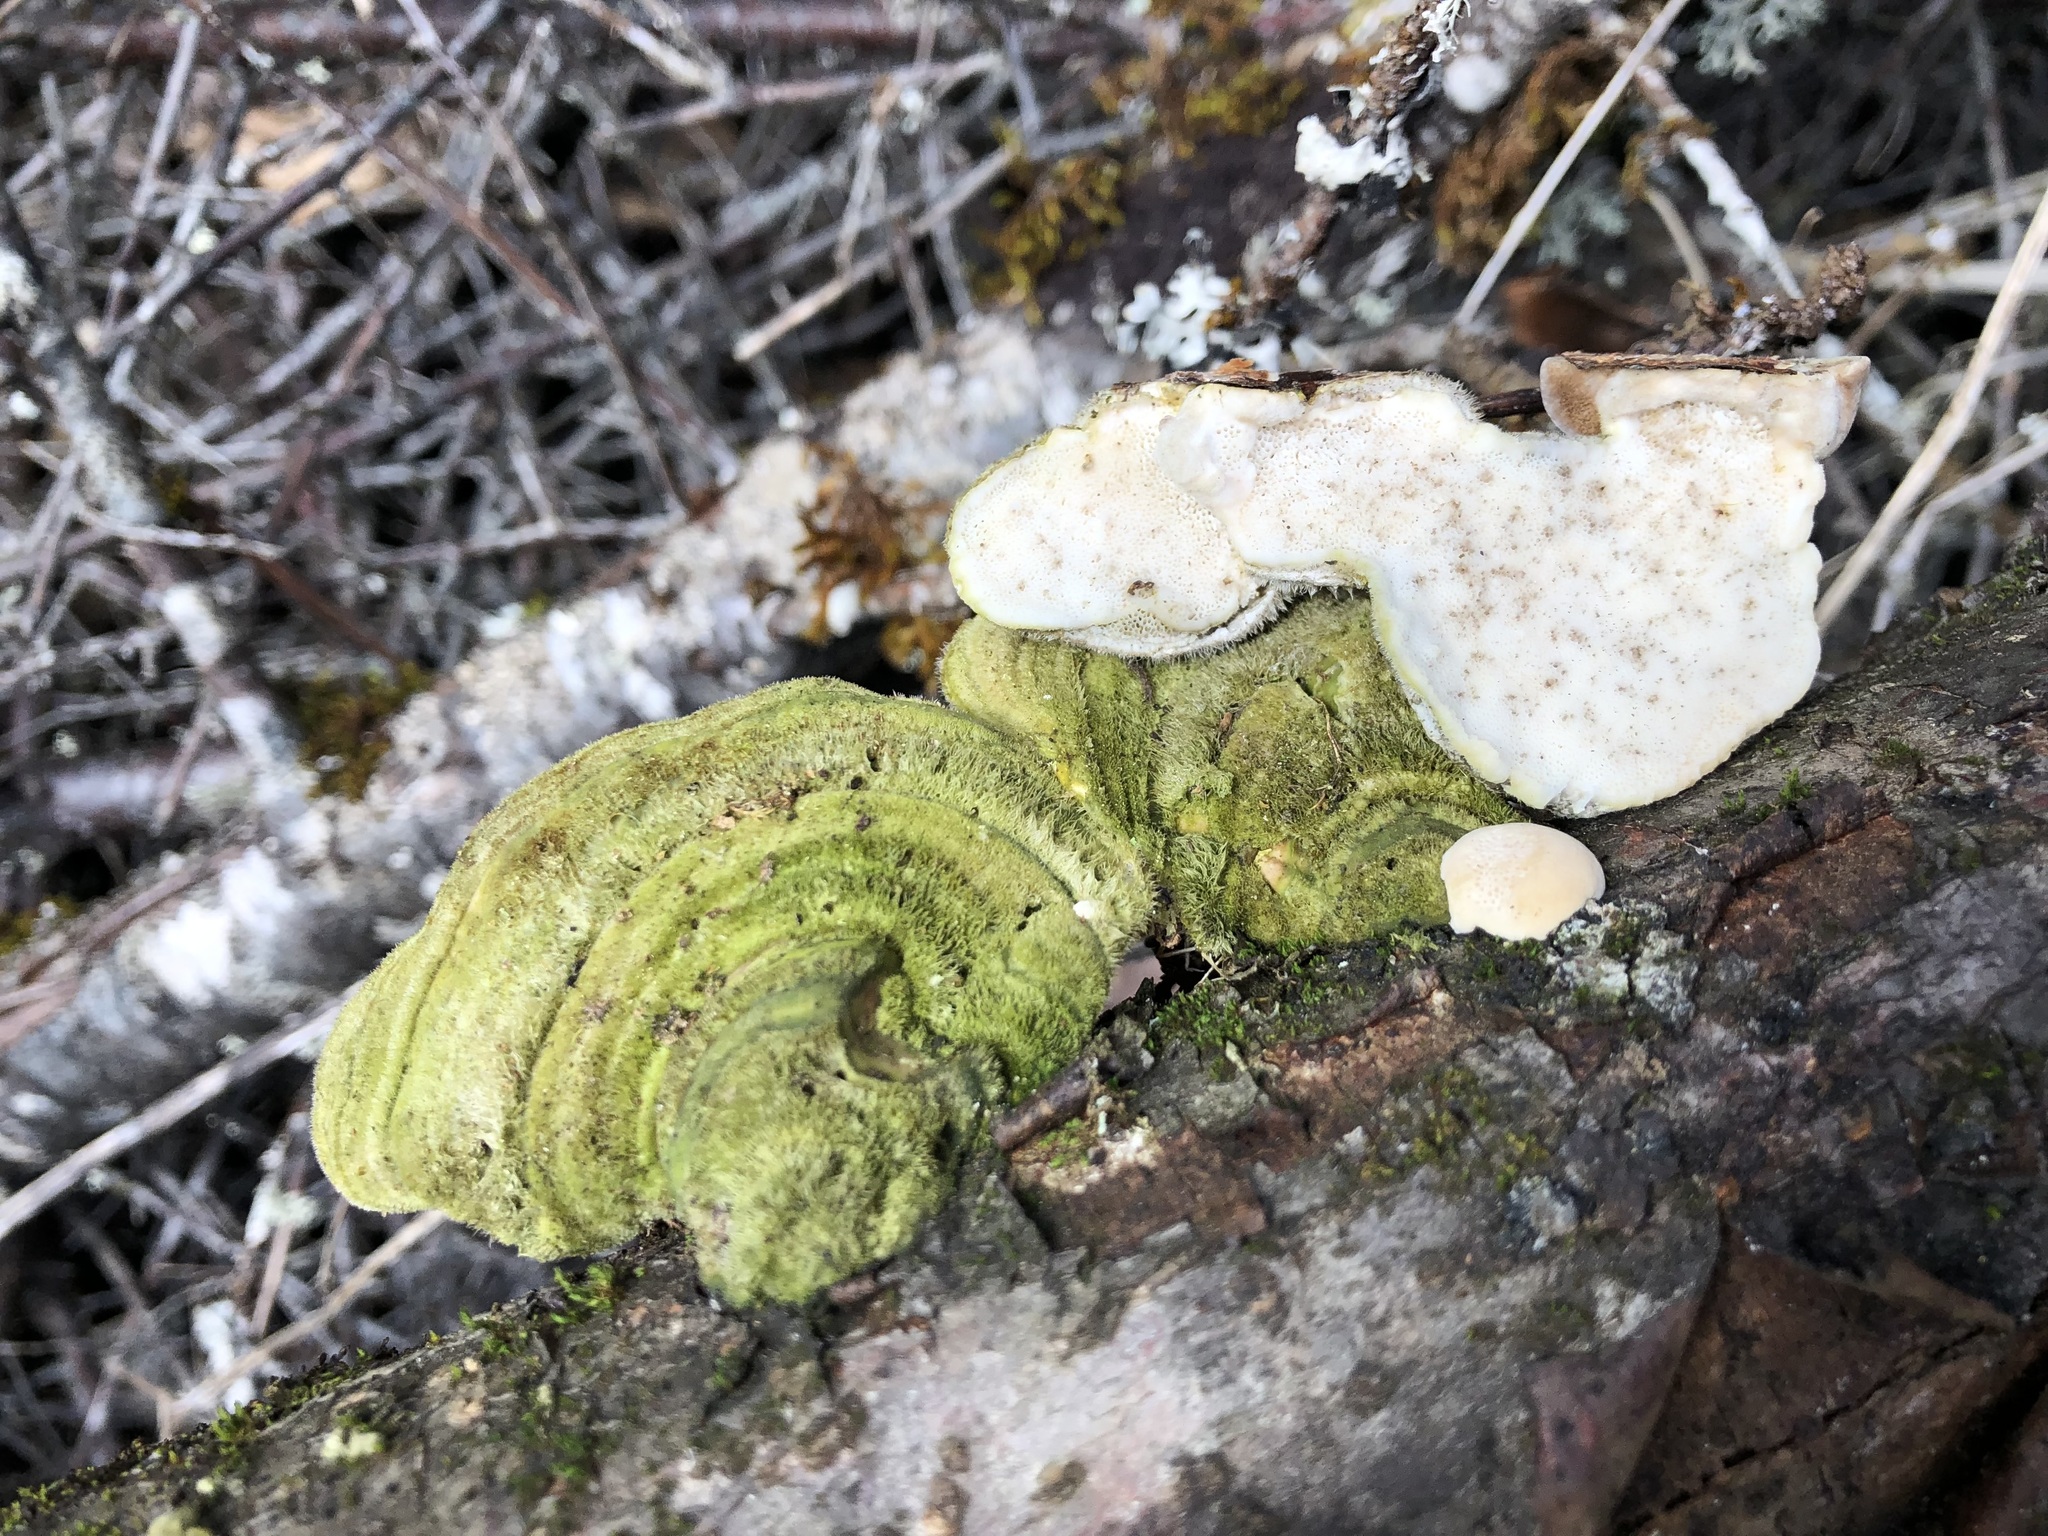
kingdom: Fungi
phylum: Basidiomycota
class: Agaricomycetes
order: Polyporales
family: Polyporaceae
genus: Trametes
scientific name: Trametes hirsuta
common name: Hairy bracket
